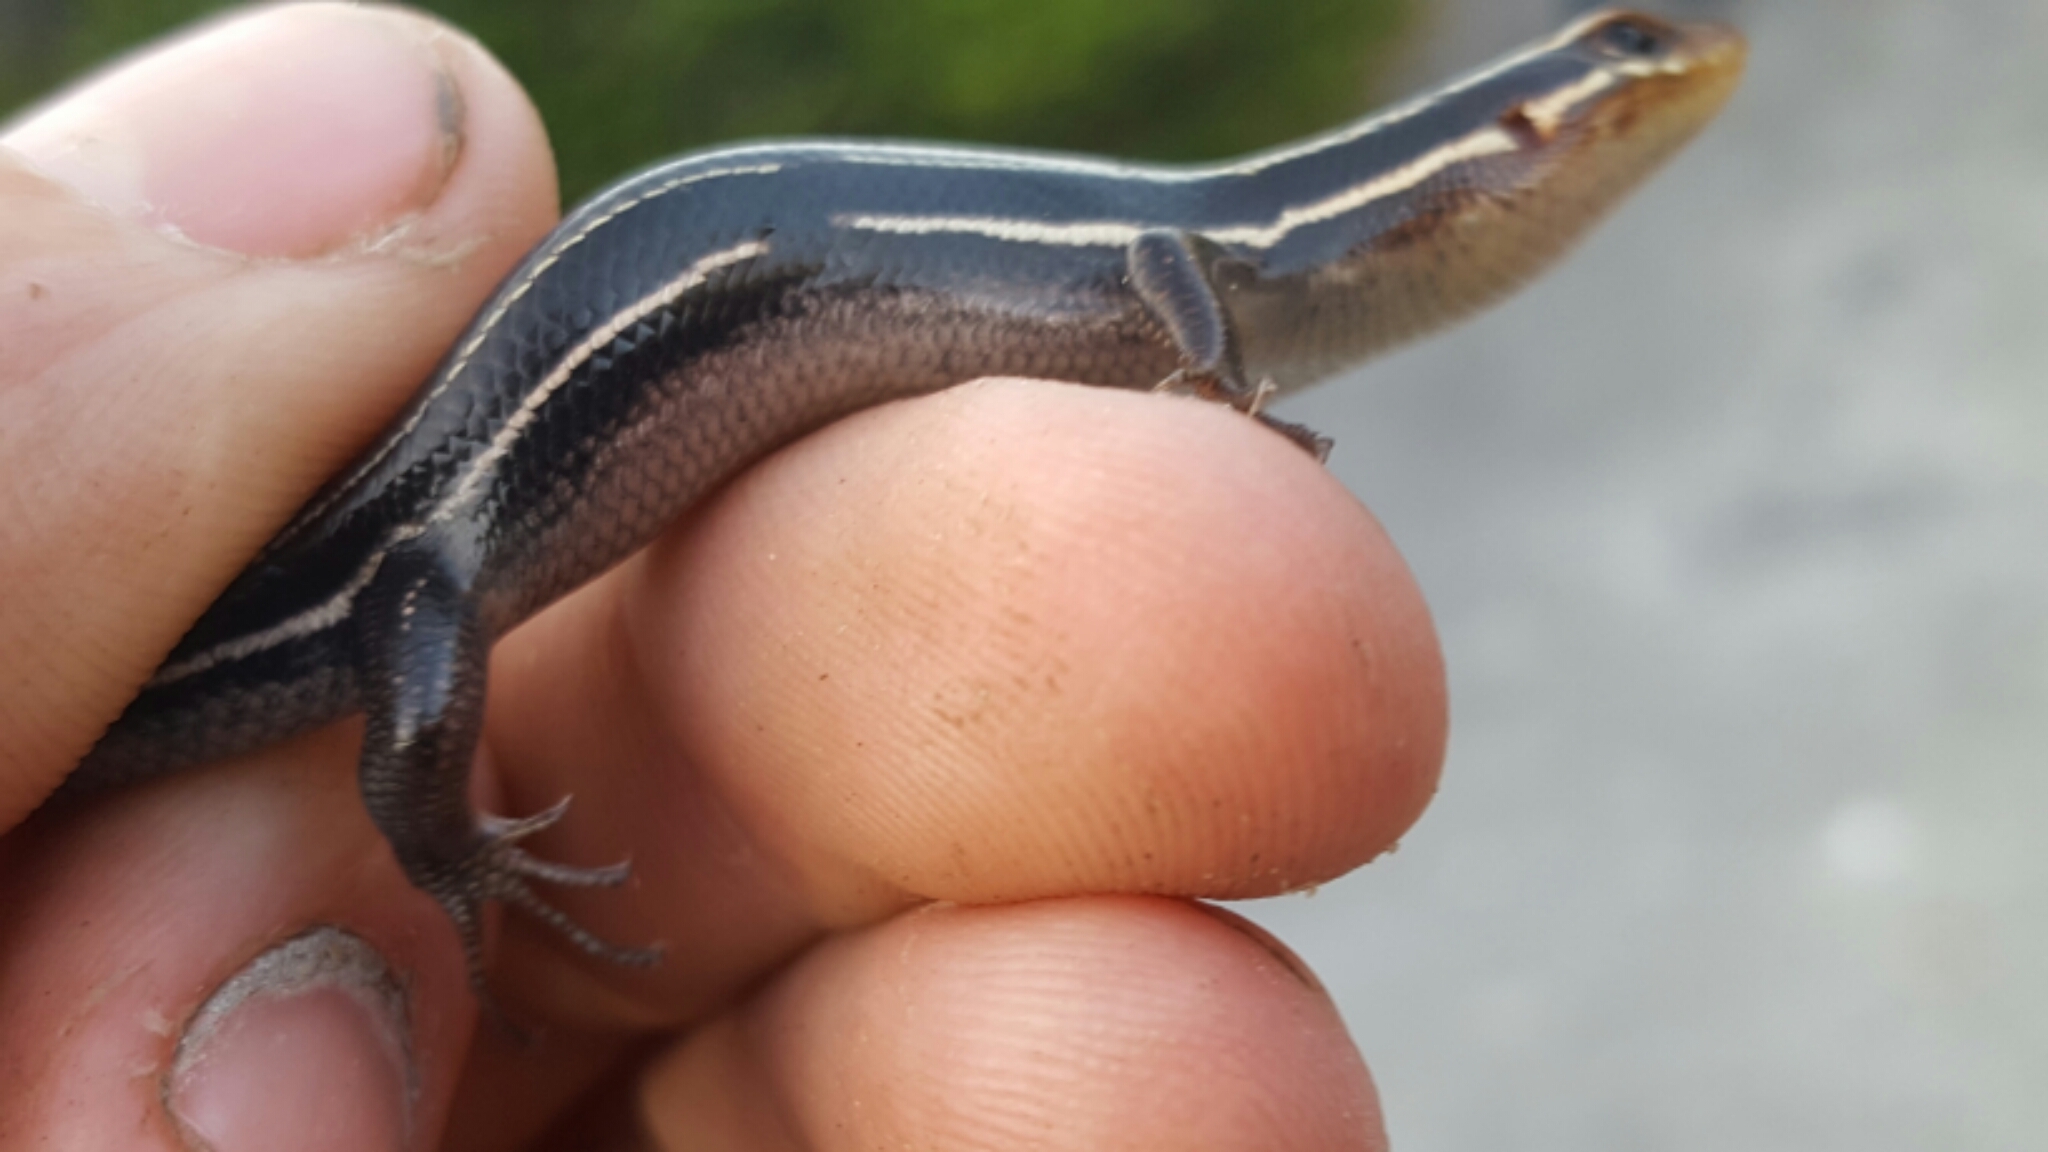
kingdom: Animalia
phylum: Chordata
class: Squamata
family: Scincidae
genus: Plestiodon
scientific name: Plestiodon inexpectatus
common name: Southeastern five-lined skink
